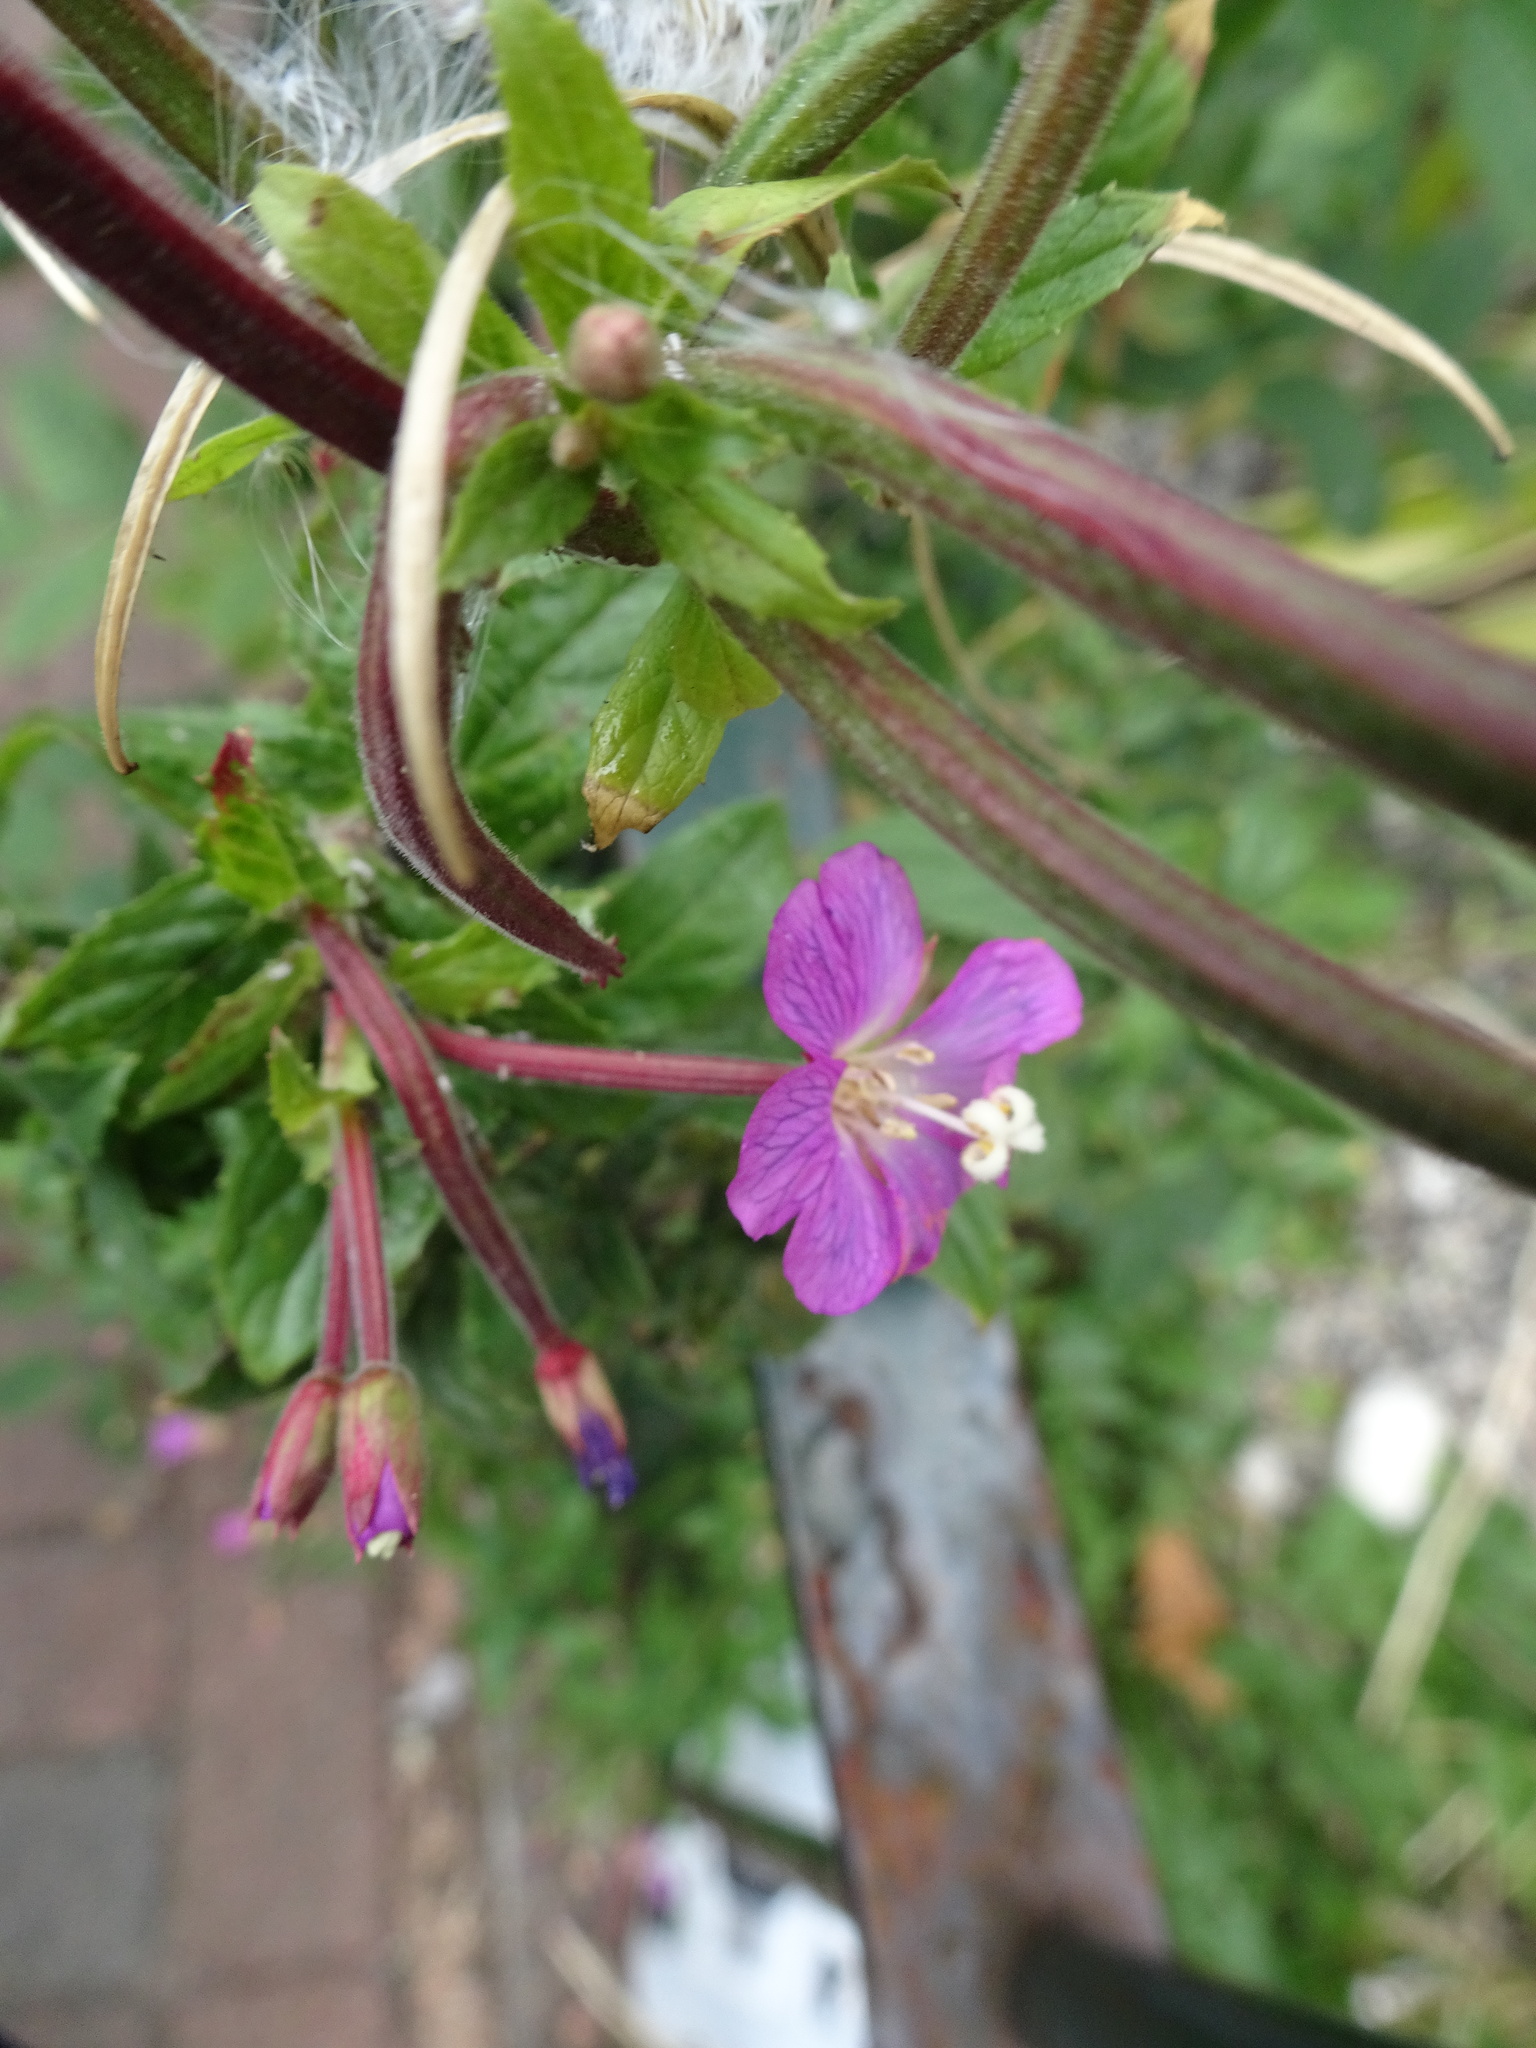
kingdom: Plantae
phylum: Tracheophyta
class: Magnoliopsida
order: Myrtales
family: Onagraceae
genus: Epilobium
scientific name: Epilobium hirsutum
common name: Great willowherb
